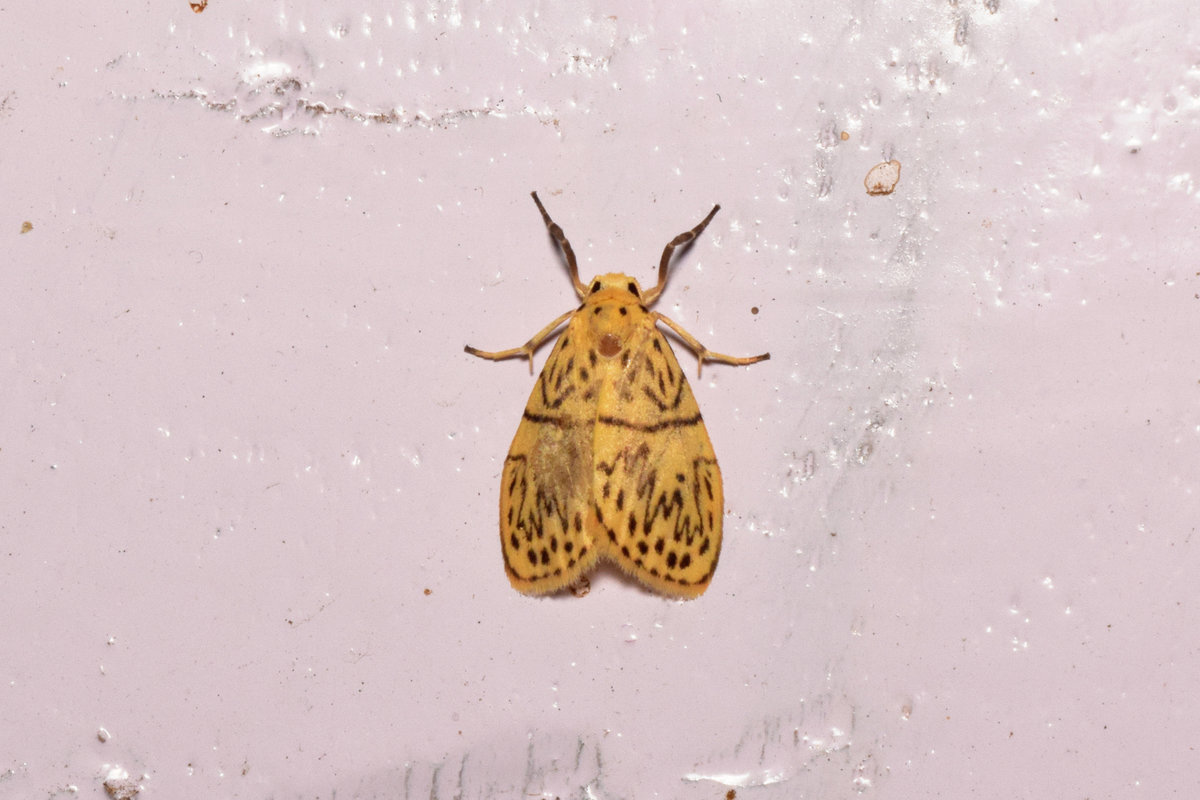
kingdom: Animalia
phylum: Arthropoda
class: Insecta
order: Lepidoptera
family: Erebidae
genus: Miltochrista
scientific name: Miltochrista undulosa
